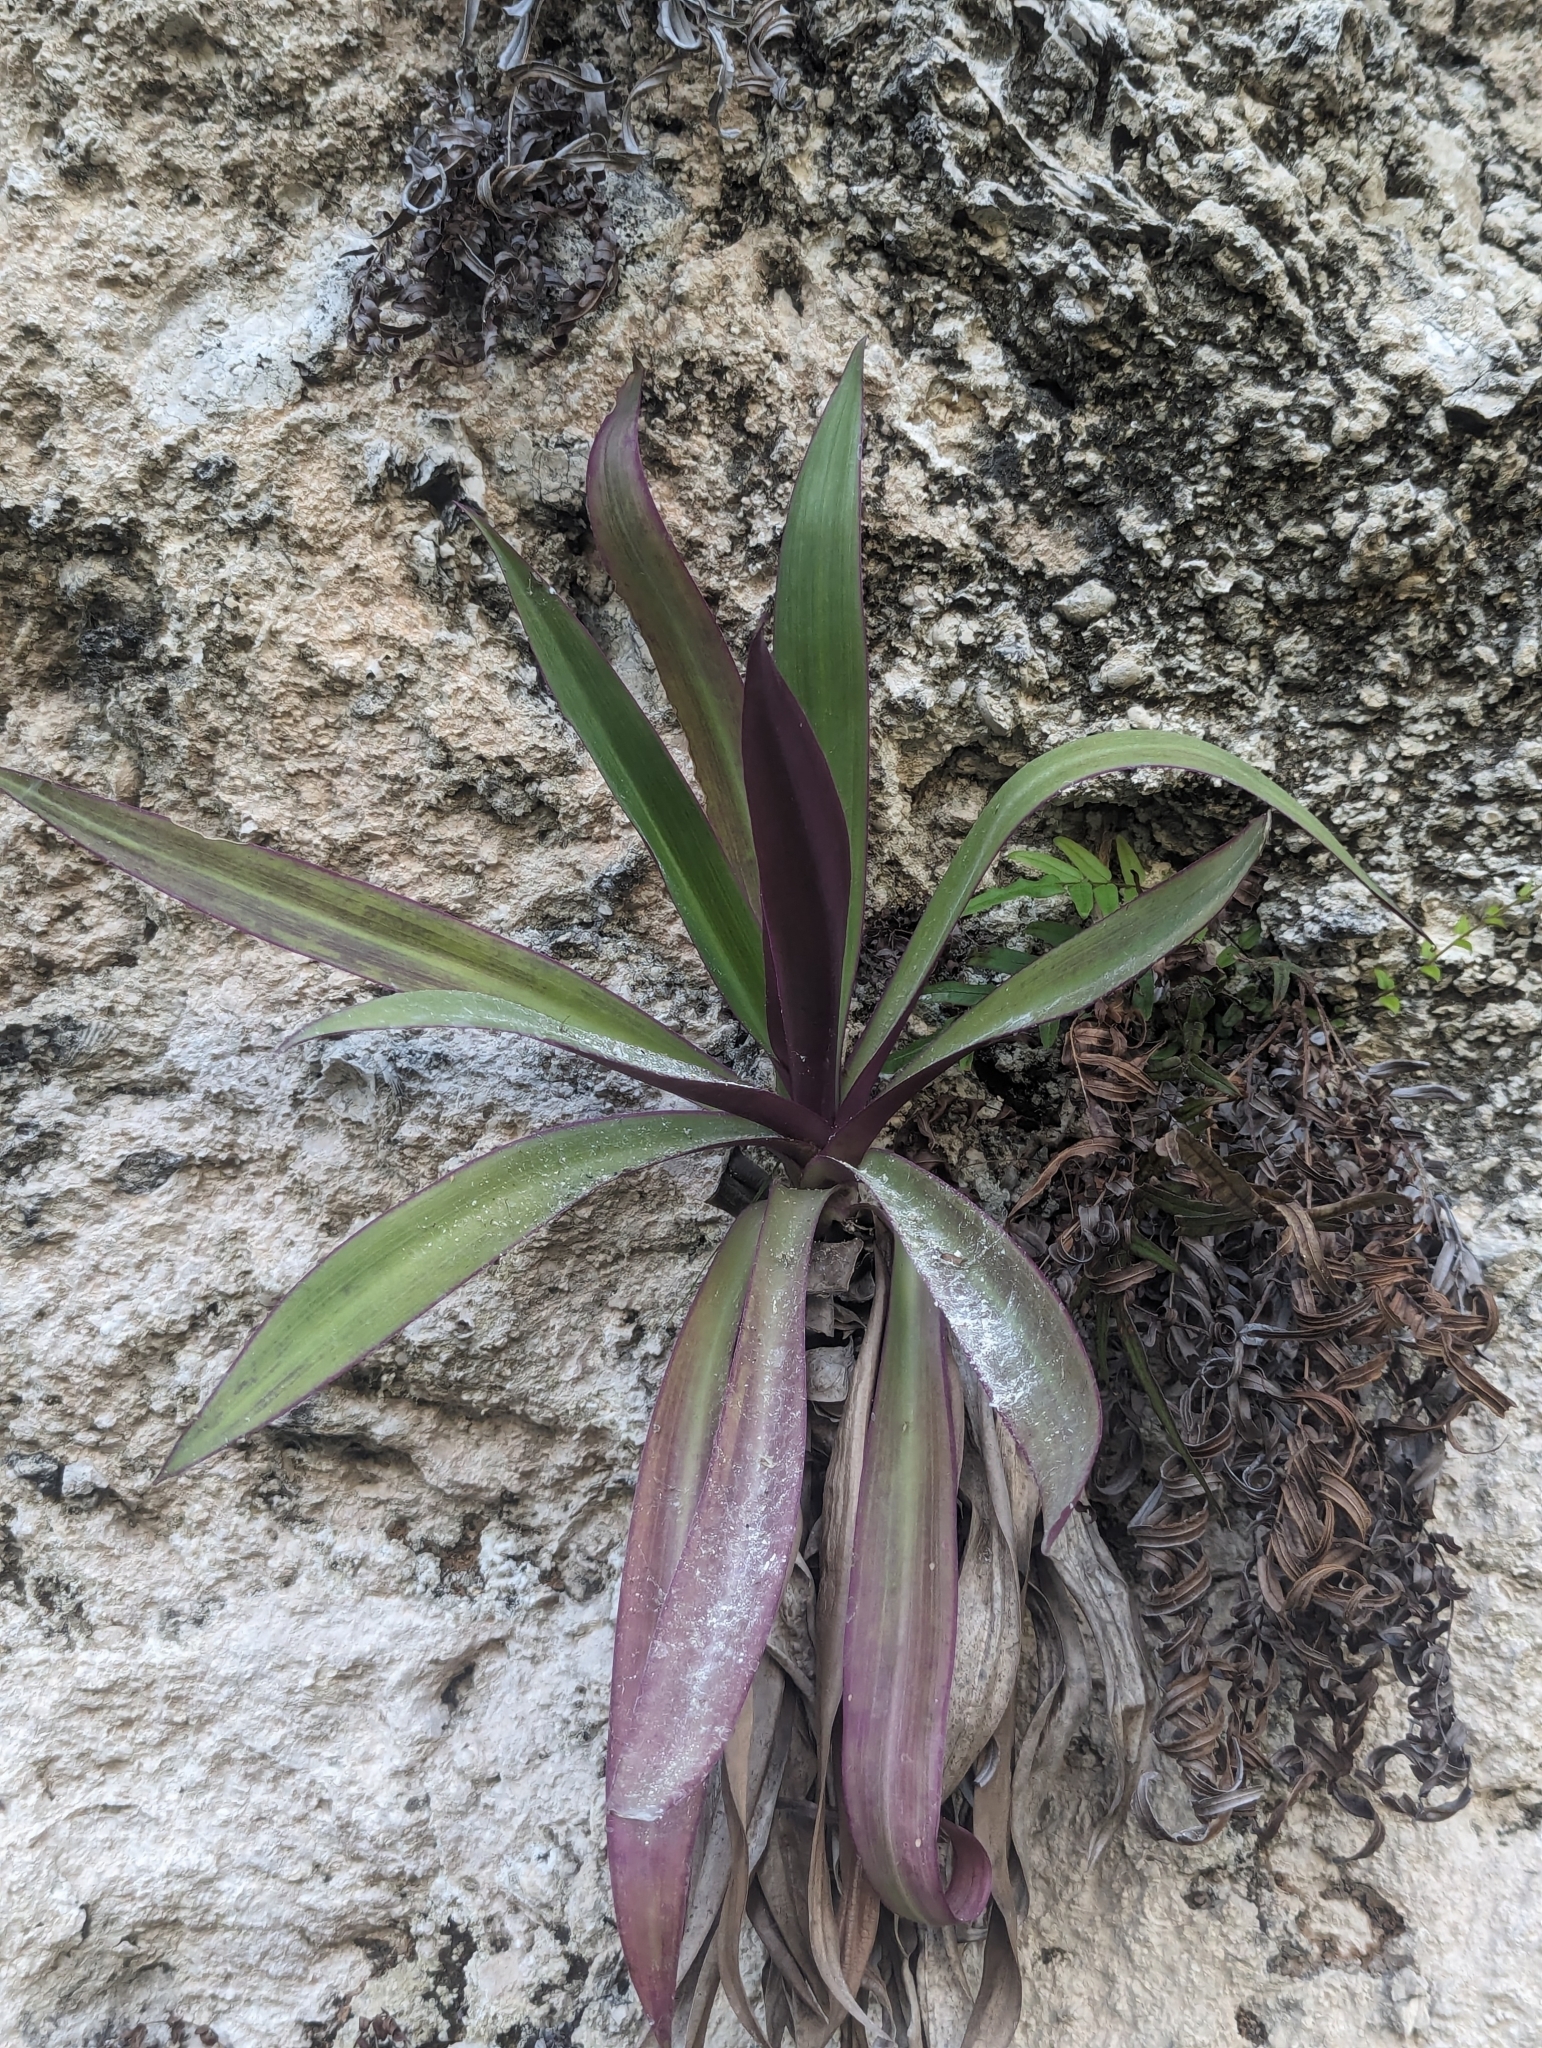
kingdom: Plantae
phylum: Tracheophyta
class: Liliopsida
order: Commelinales
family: Commelinaceae
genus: Tradescantia
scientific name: Tradescantia spathacea
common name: Boatlily
